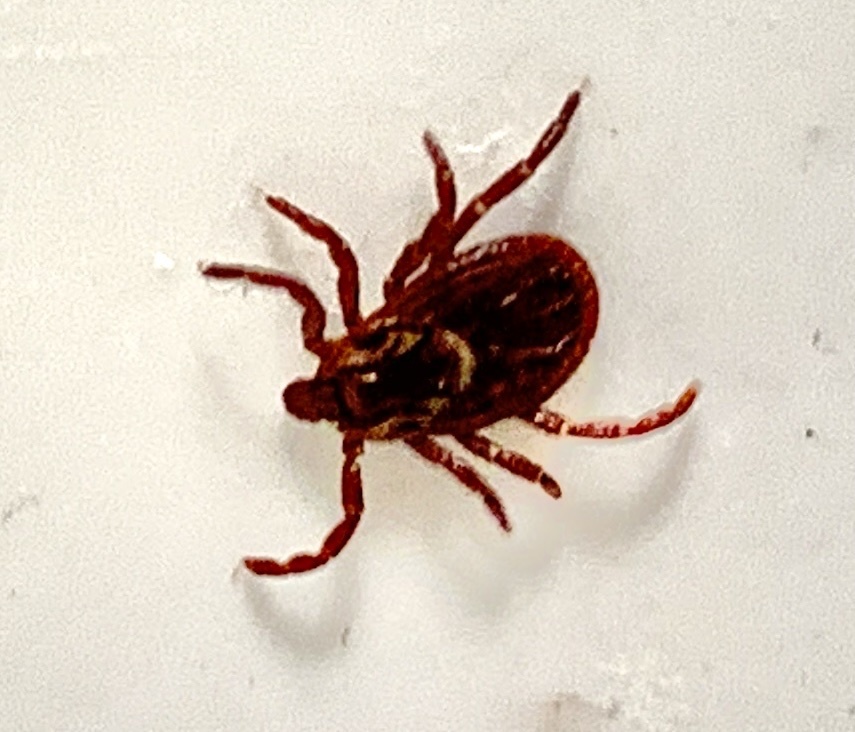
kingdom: Animalia
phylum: Arthropoda
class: Arachnida
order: Ixodida
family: Ixodidae
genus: Dermacentor
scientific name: Dermacentor variabilis
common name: American dog tick
